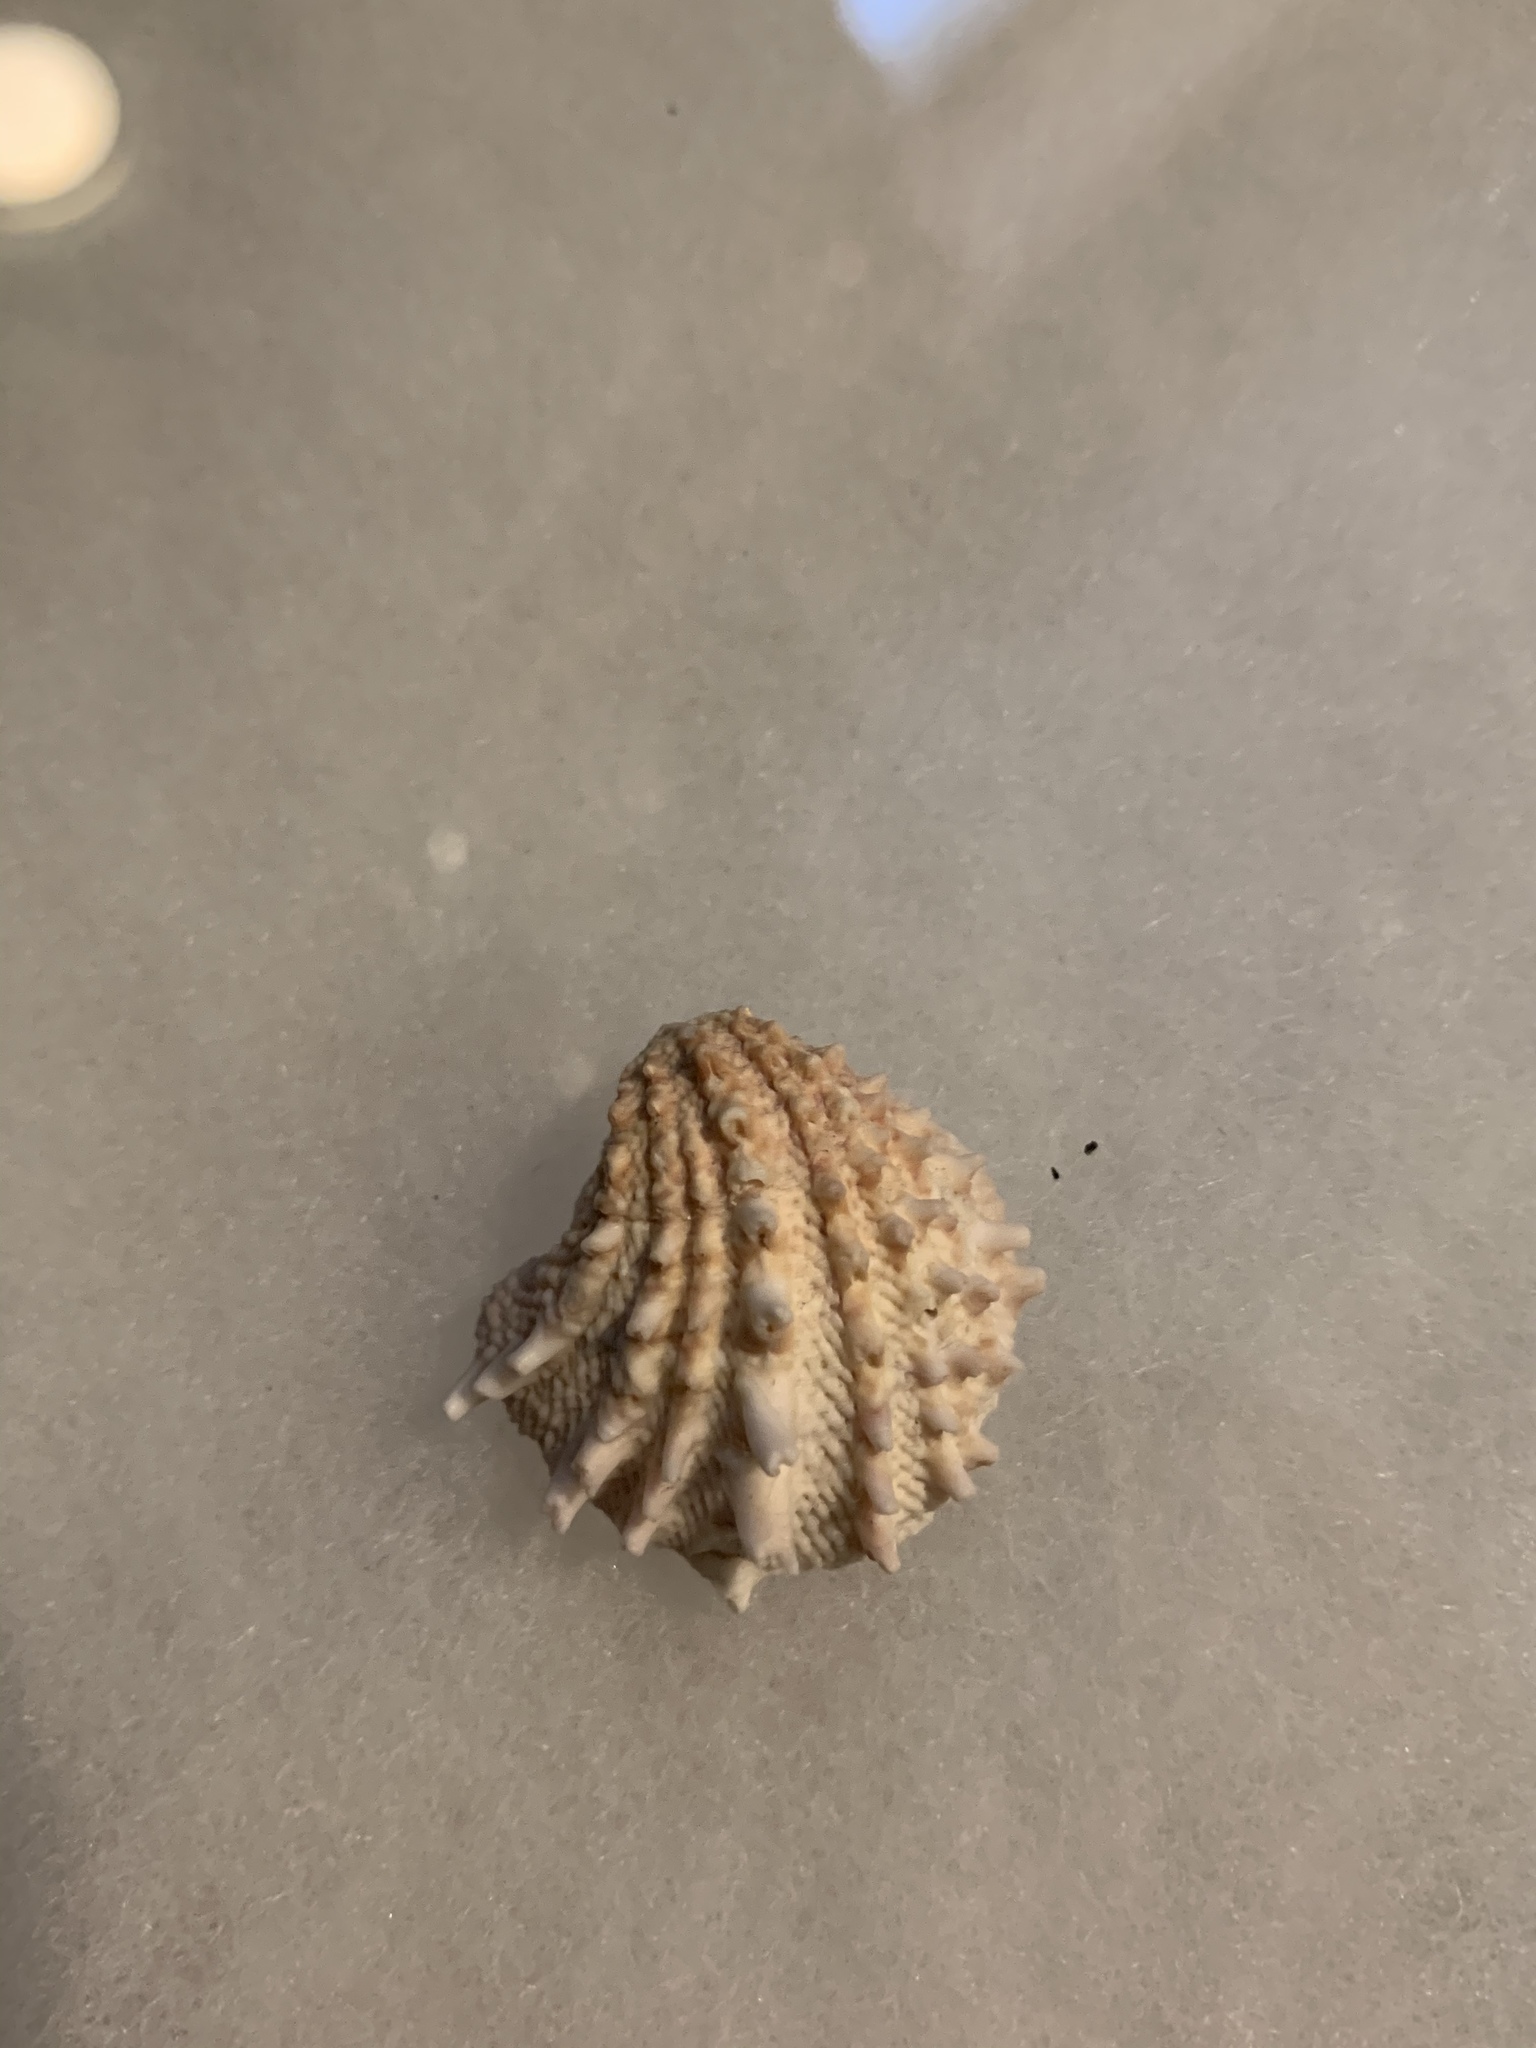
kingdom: Animalia
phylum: Mollusca
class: Bivalvia
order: Venerida
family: Chamidae
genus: Arcinella
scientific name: Arcinella cornuta
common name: Florida spiny jewel box
